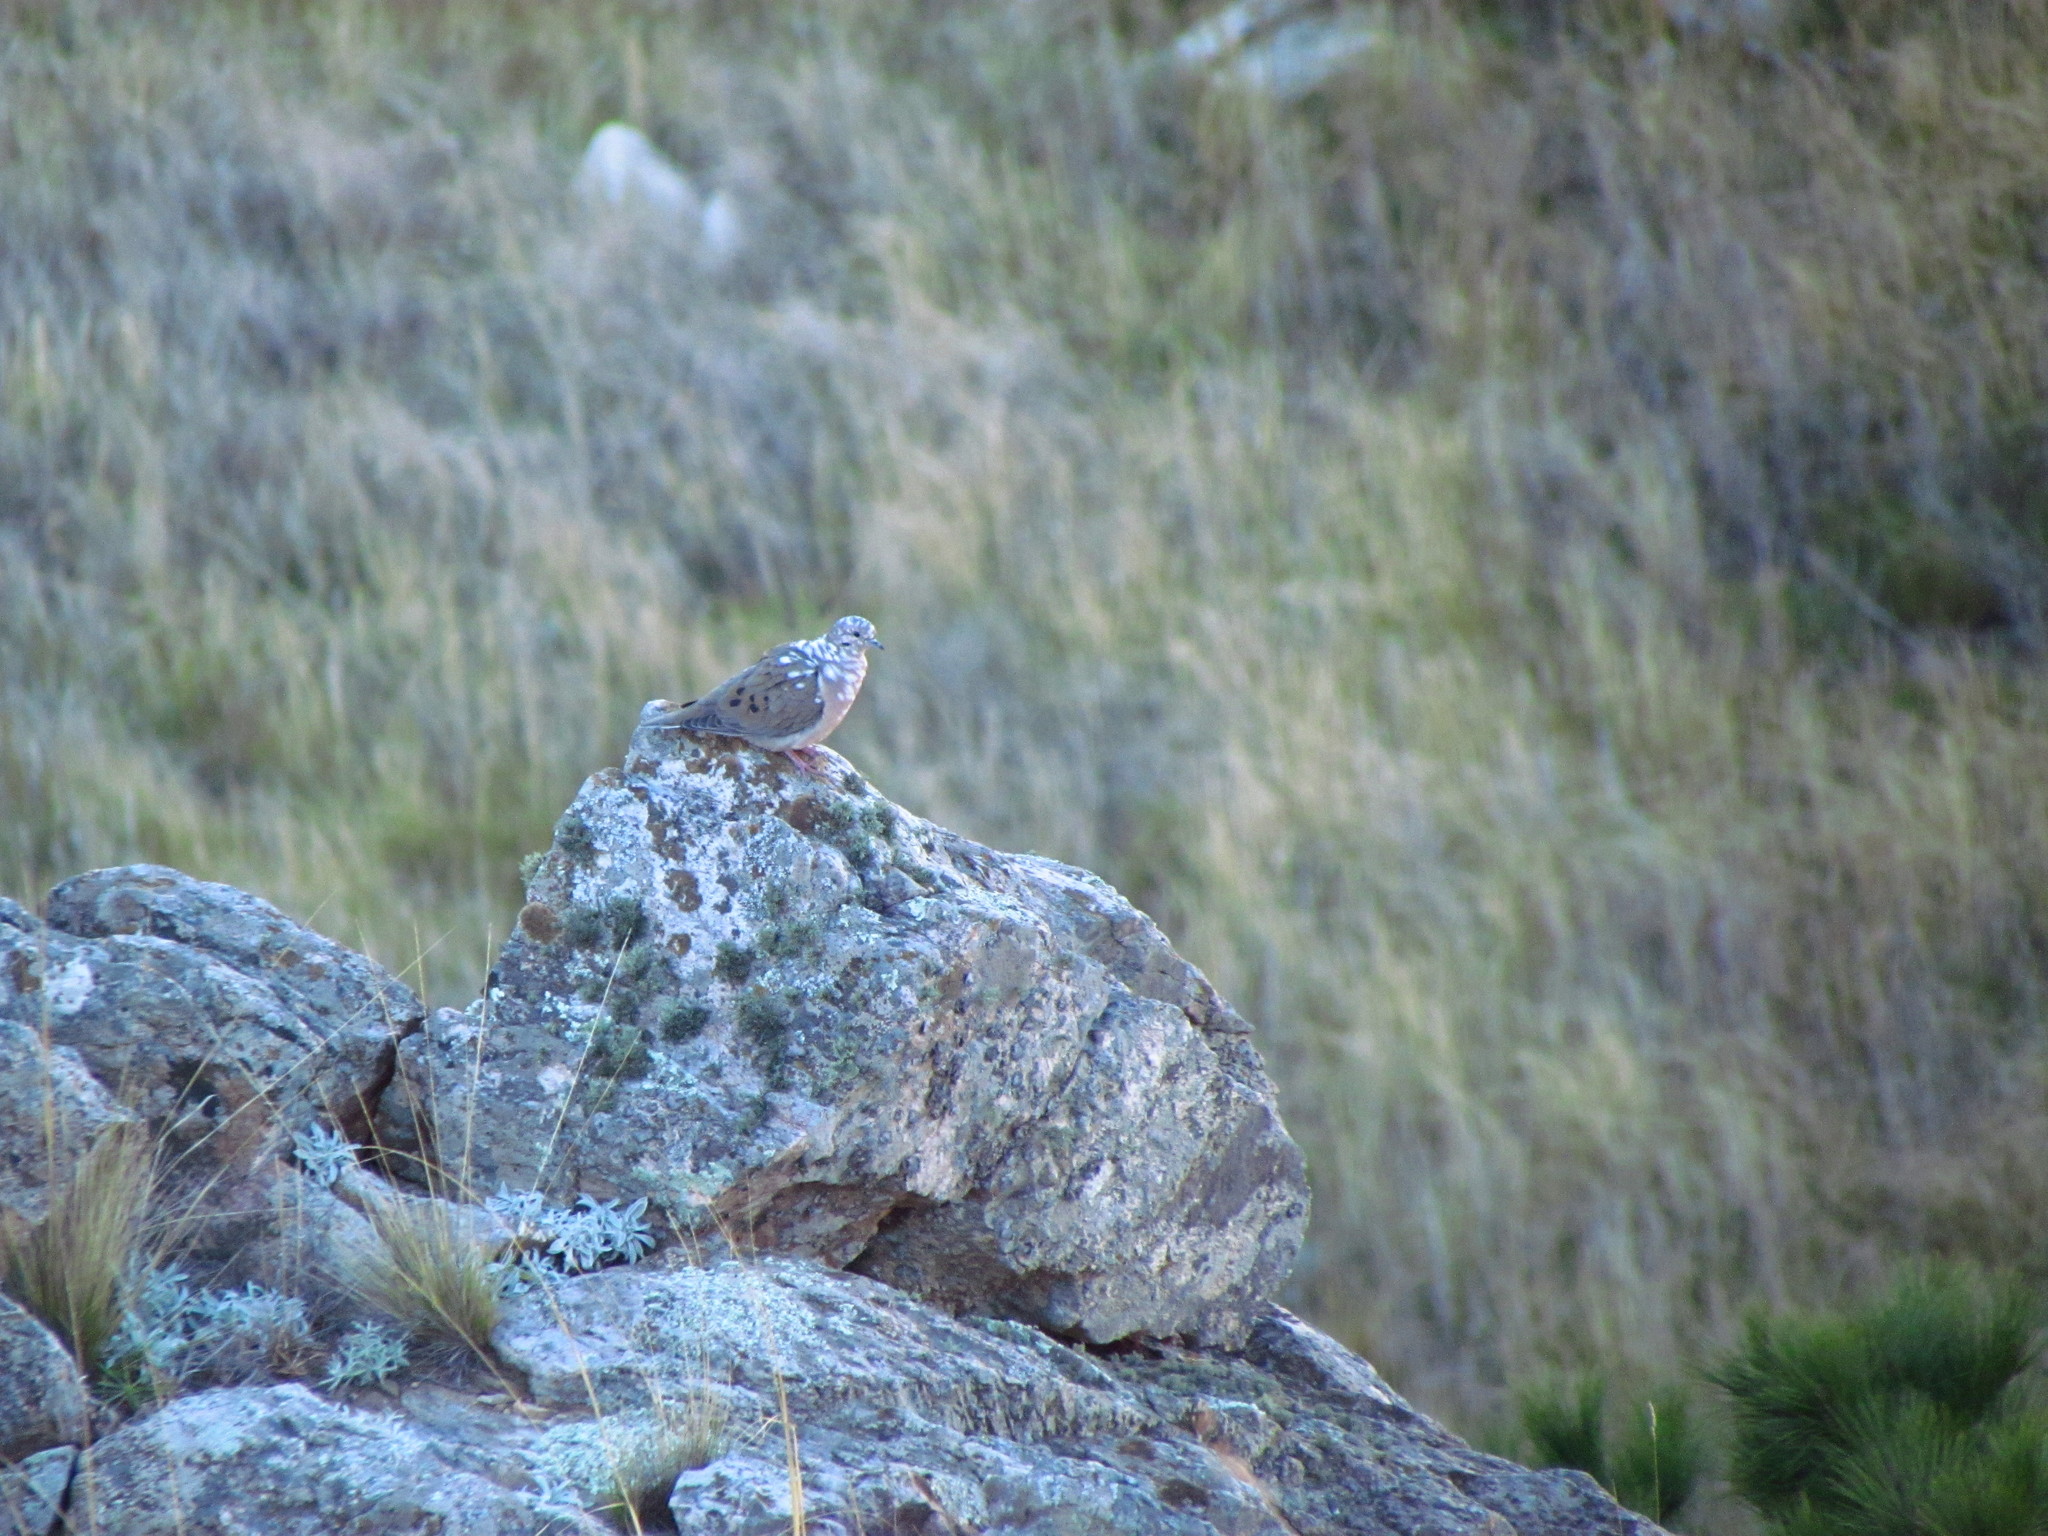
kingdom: Animalia
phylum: Chordata
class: Aves
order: Columbiformes
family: Columbidae
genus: Zenaida
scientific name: Zenaida auriculata
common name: Eared dove
